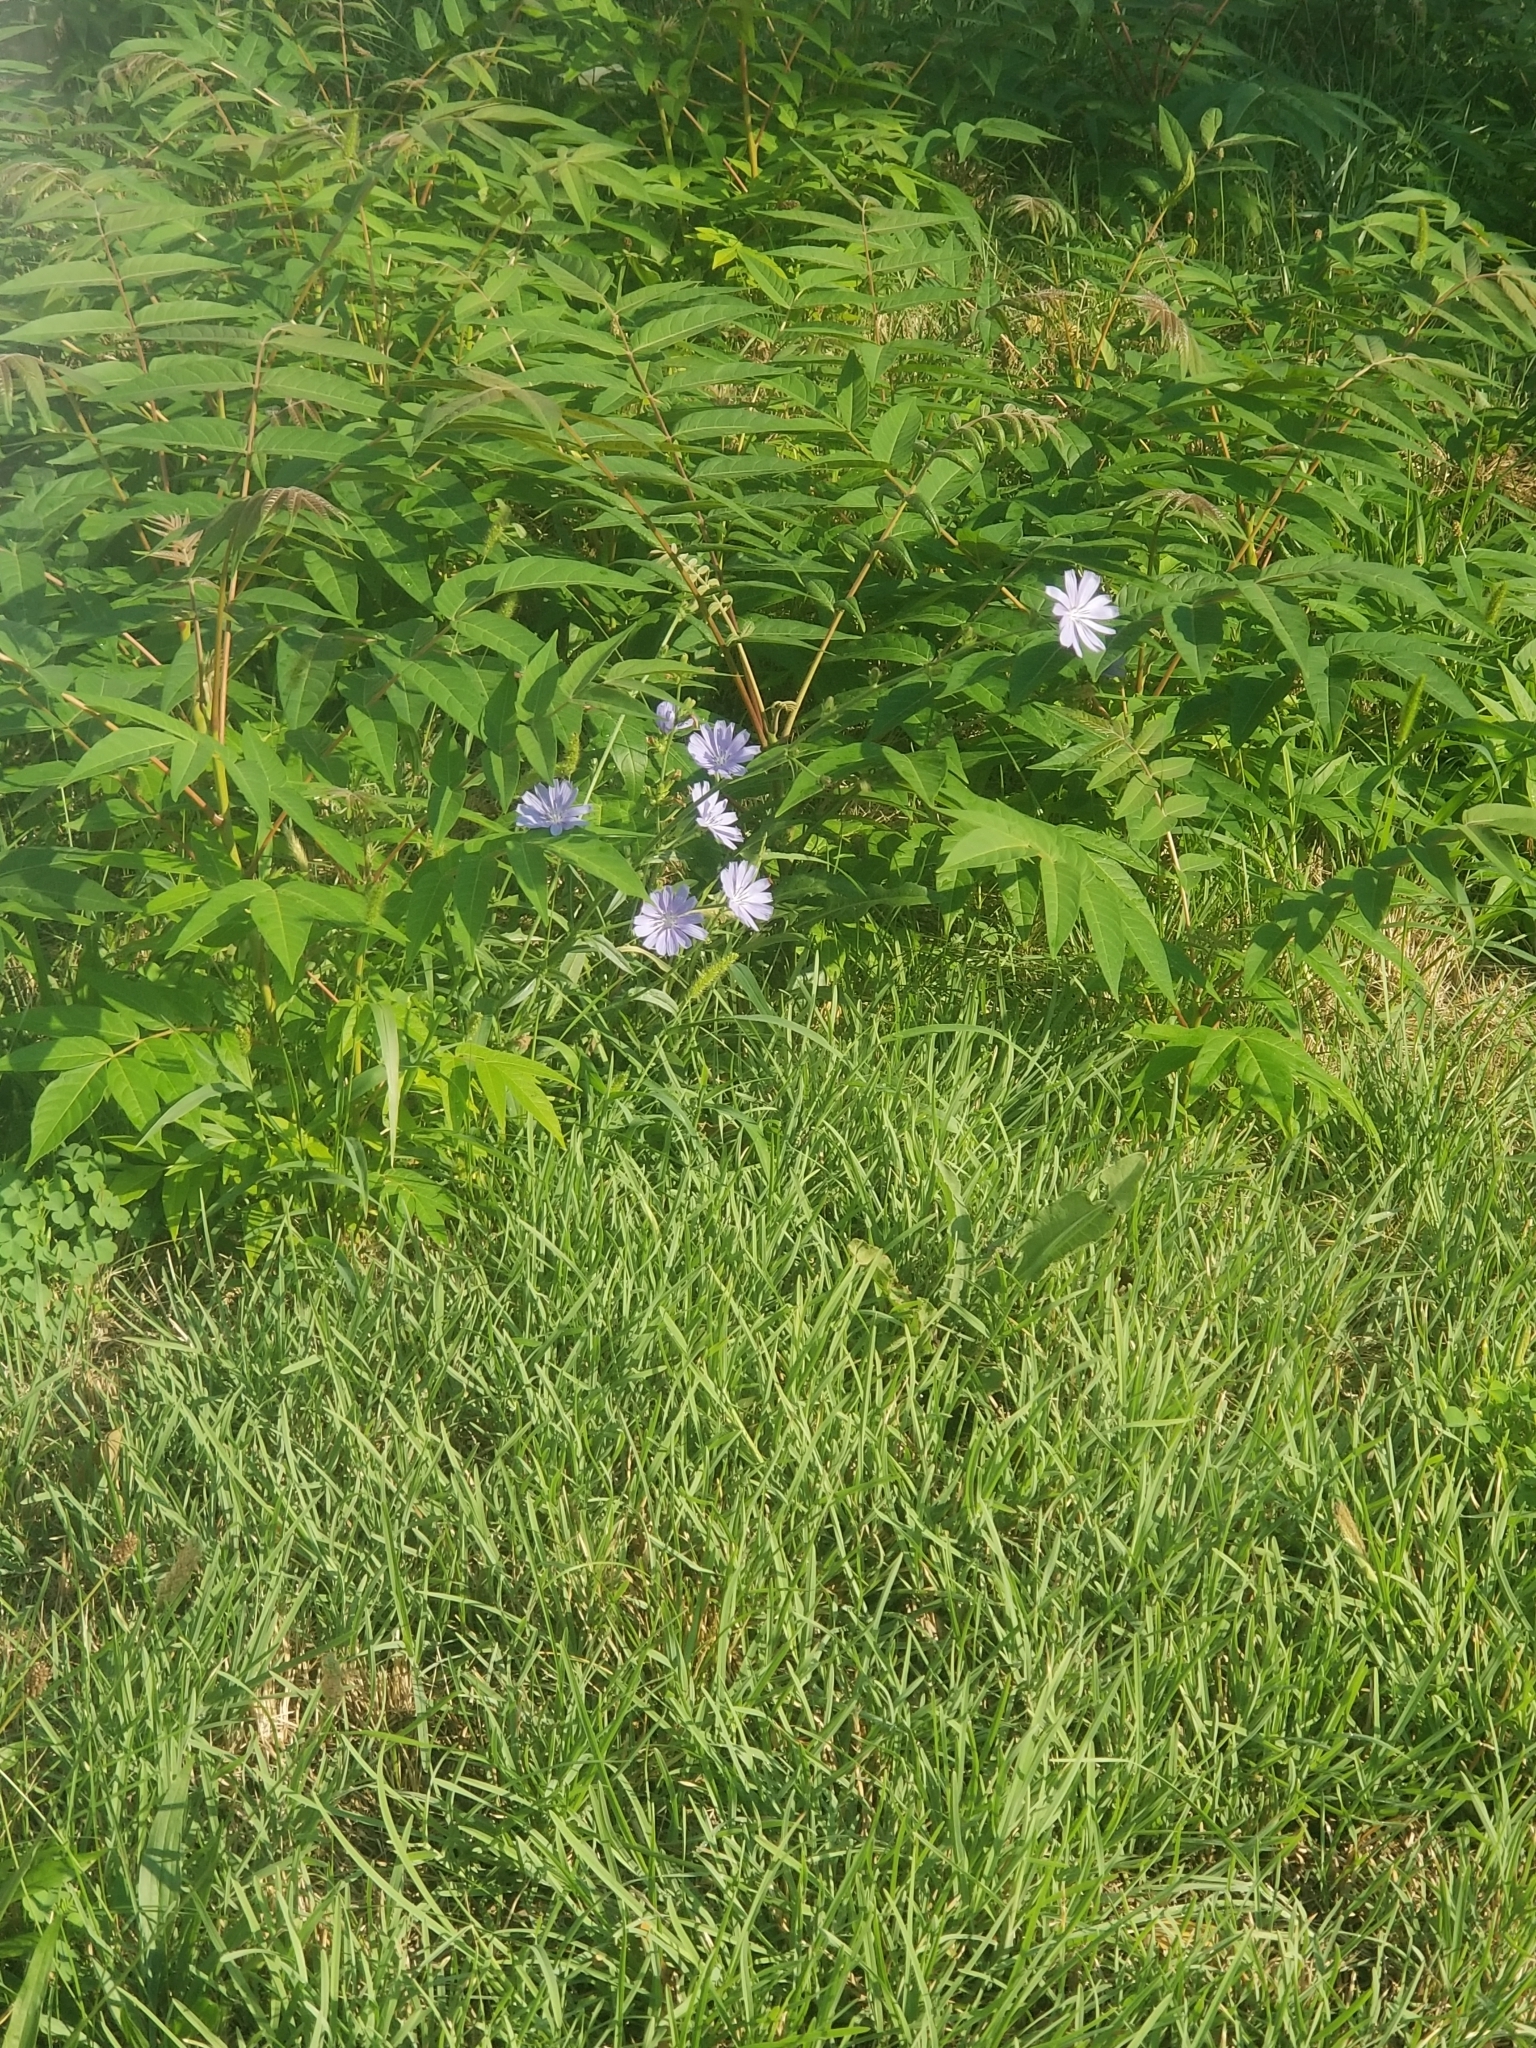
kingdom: Plantae
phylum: Tracheophyta
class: Magnoliopsida
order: Asterales
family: Asteraceae
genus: Cichorium
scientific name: Cichorium intybus
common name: Chicory
